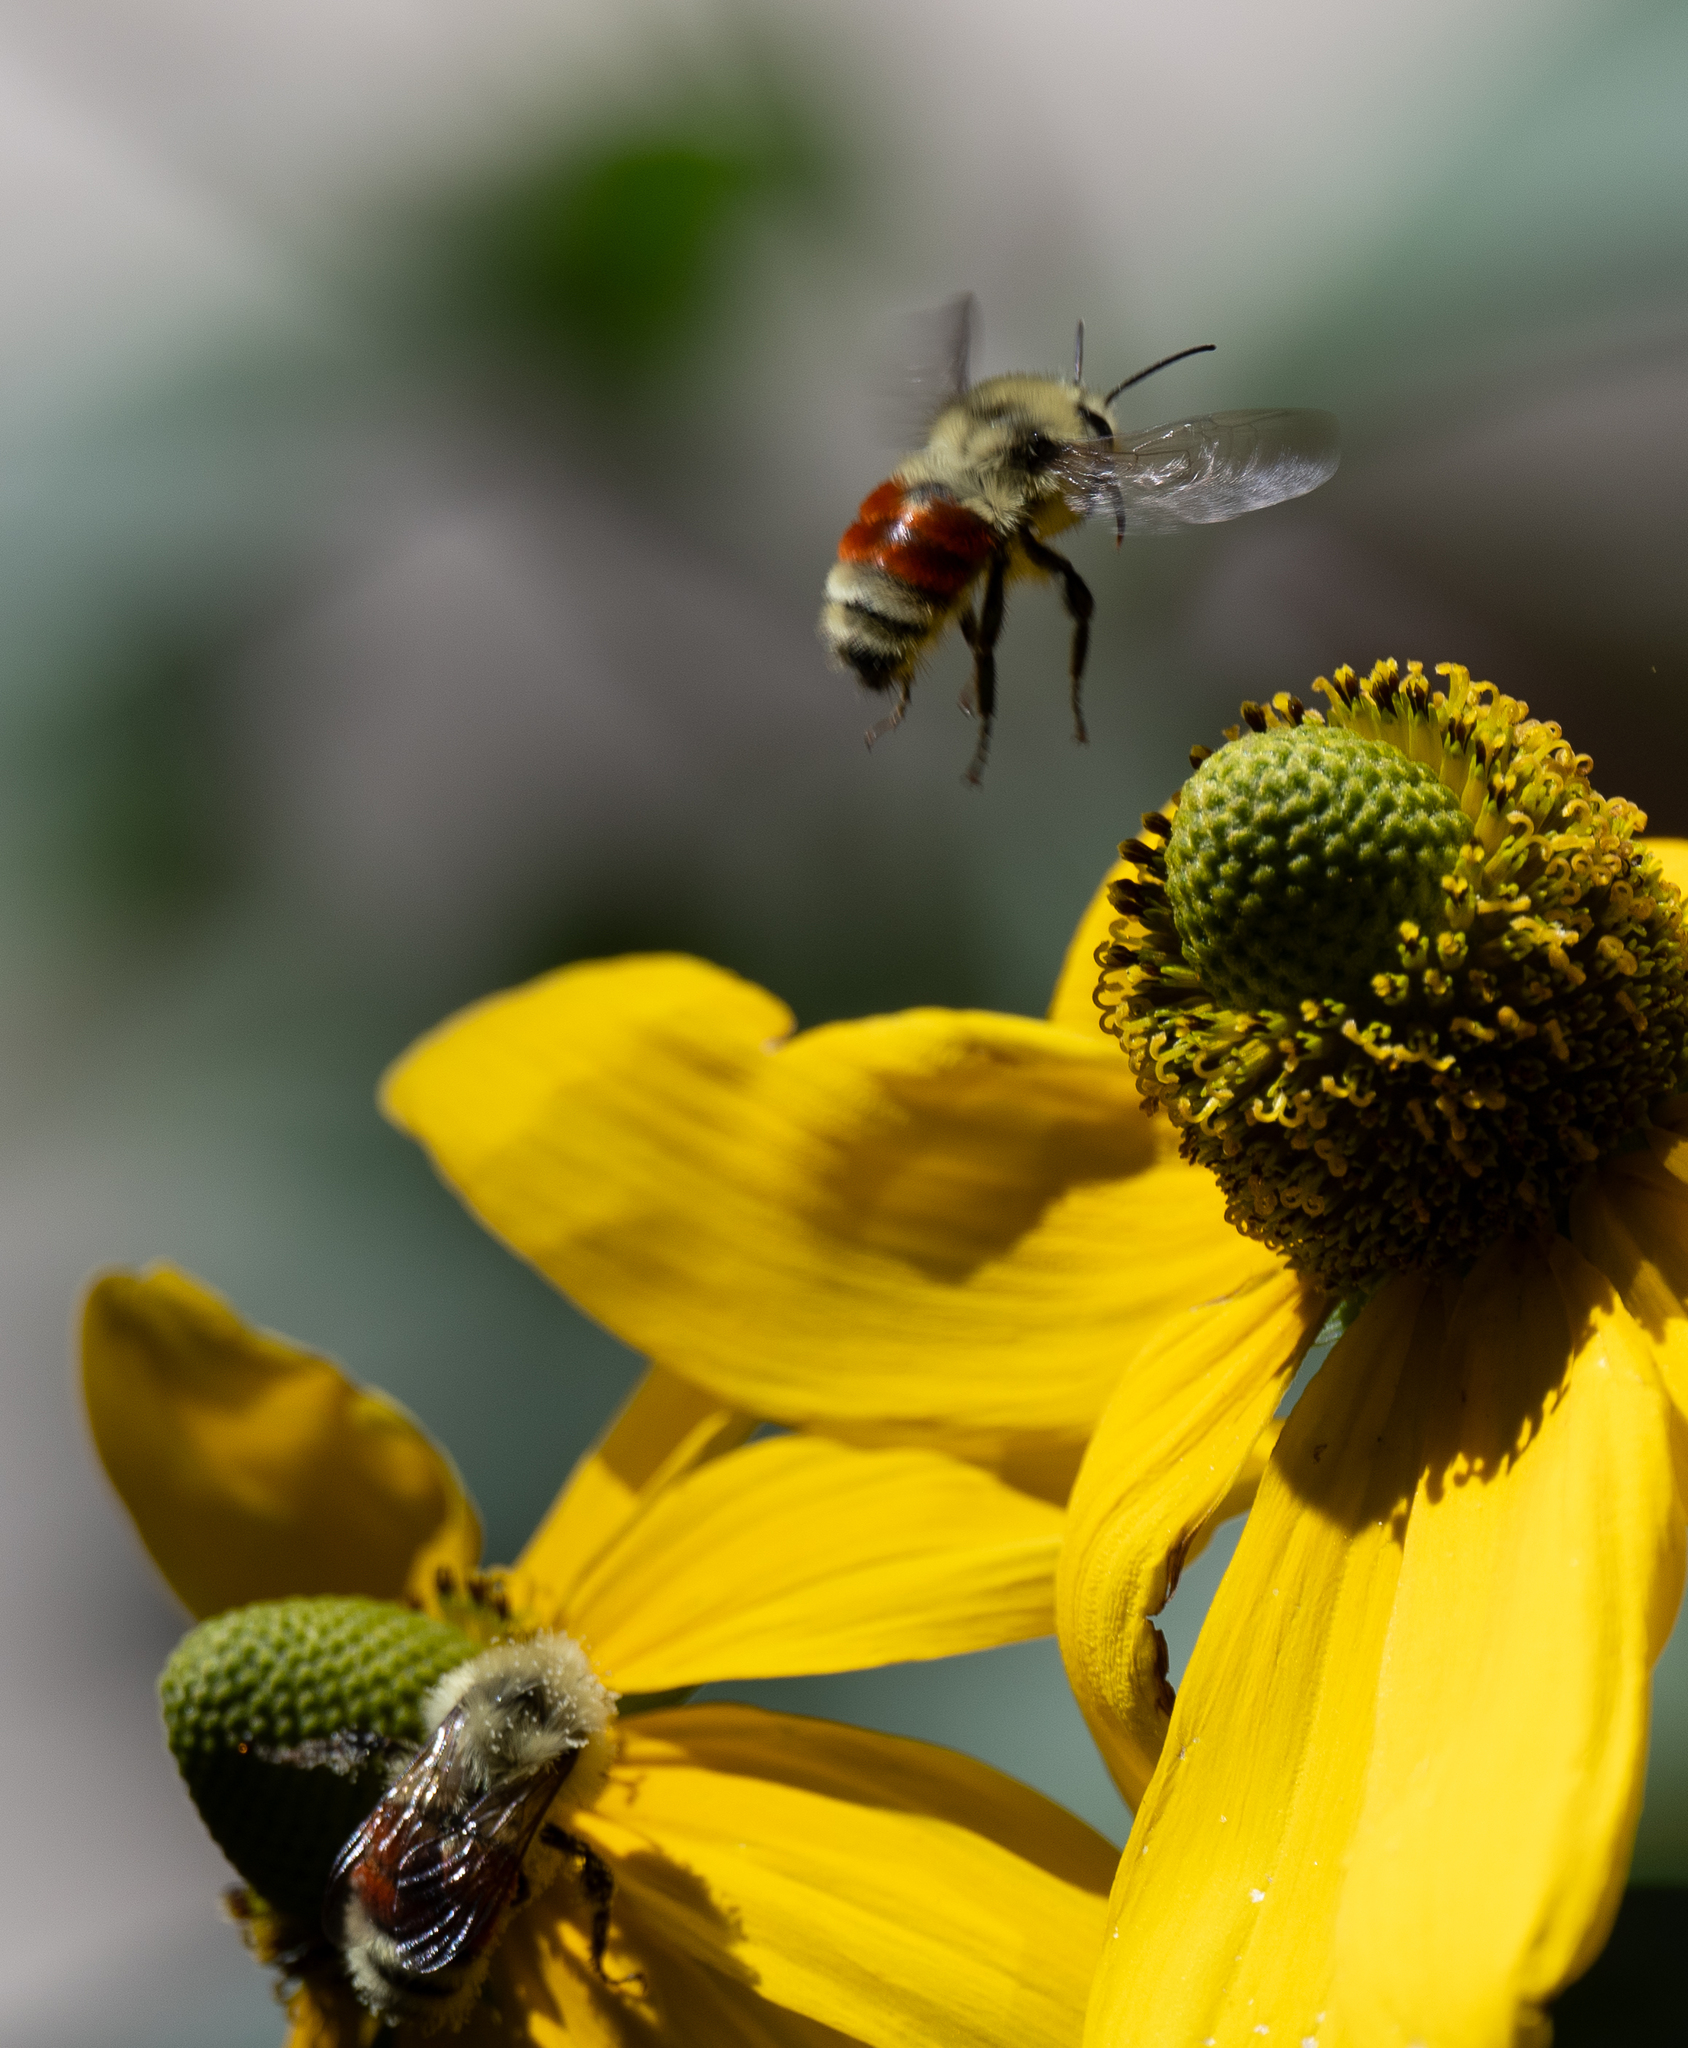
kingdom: Animalia
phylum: Arthropoda
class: Insecta
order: Hymenoptera
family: Apidae
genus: Bombus
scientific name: Bombus huntii
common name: Hunt bumble bee
